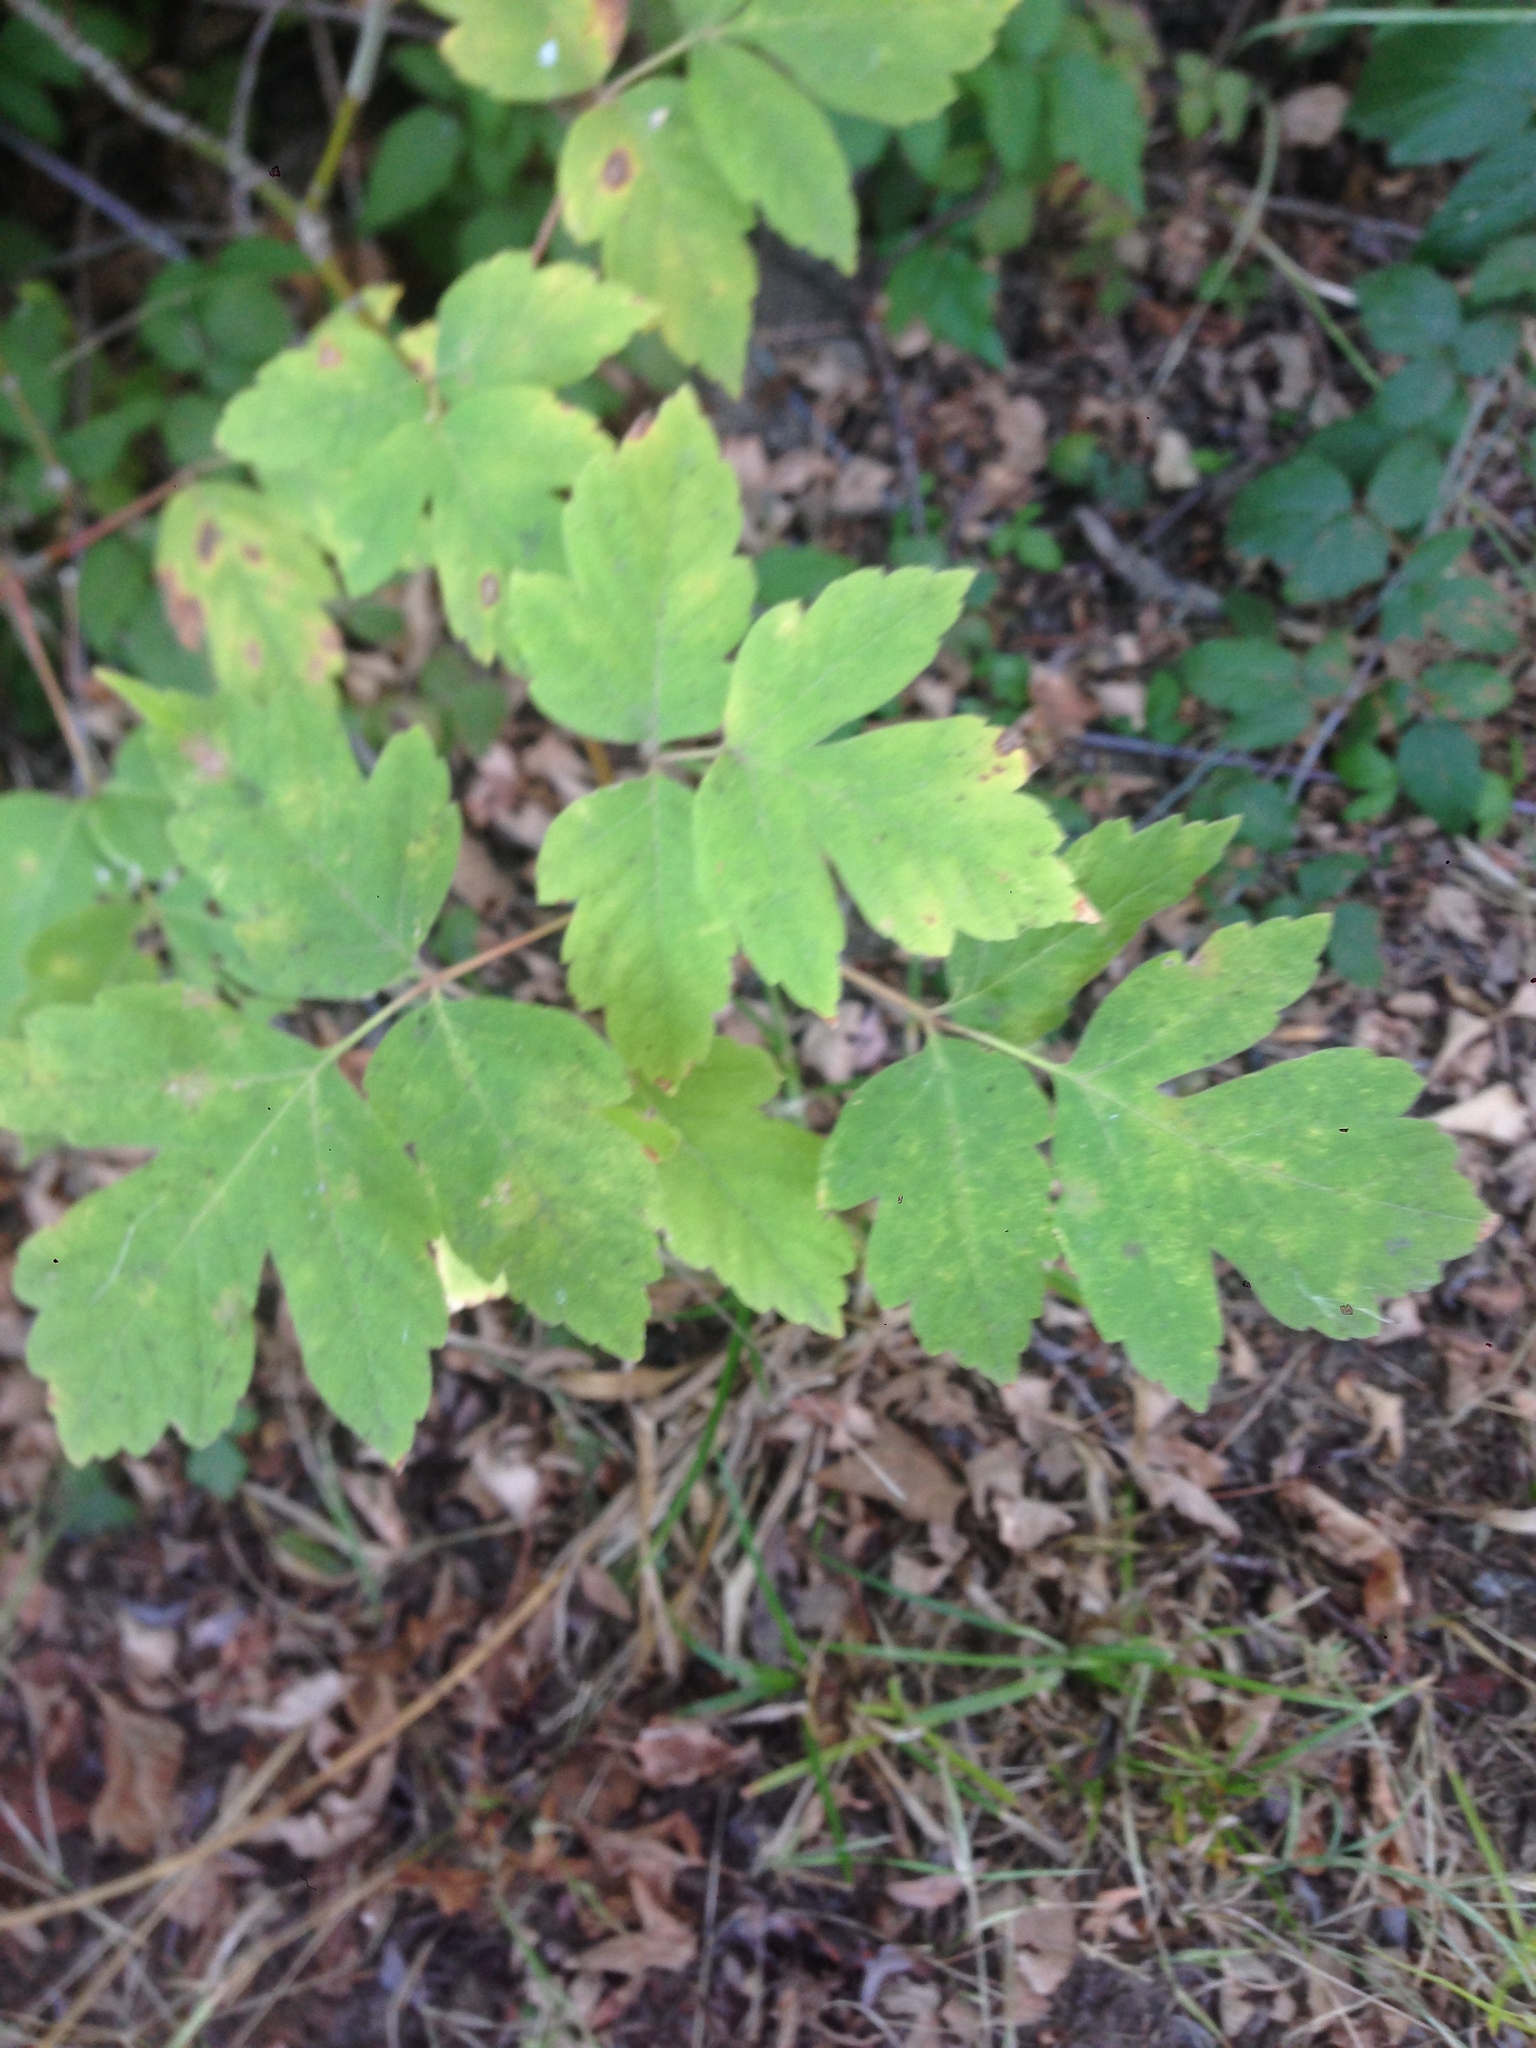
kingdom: Plantae
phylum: Tracheophyta
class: Magnoliopsida
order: Sapindales
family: Sapindaceae
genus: Acer
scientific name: Acer negundo
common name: Ashleaf maple
